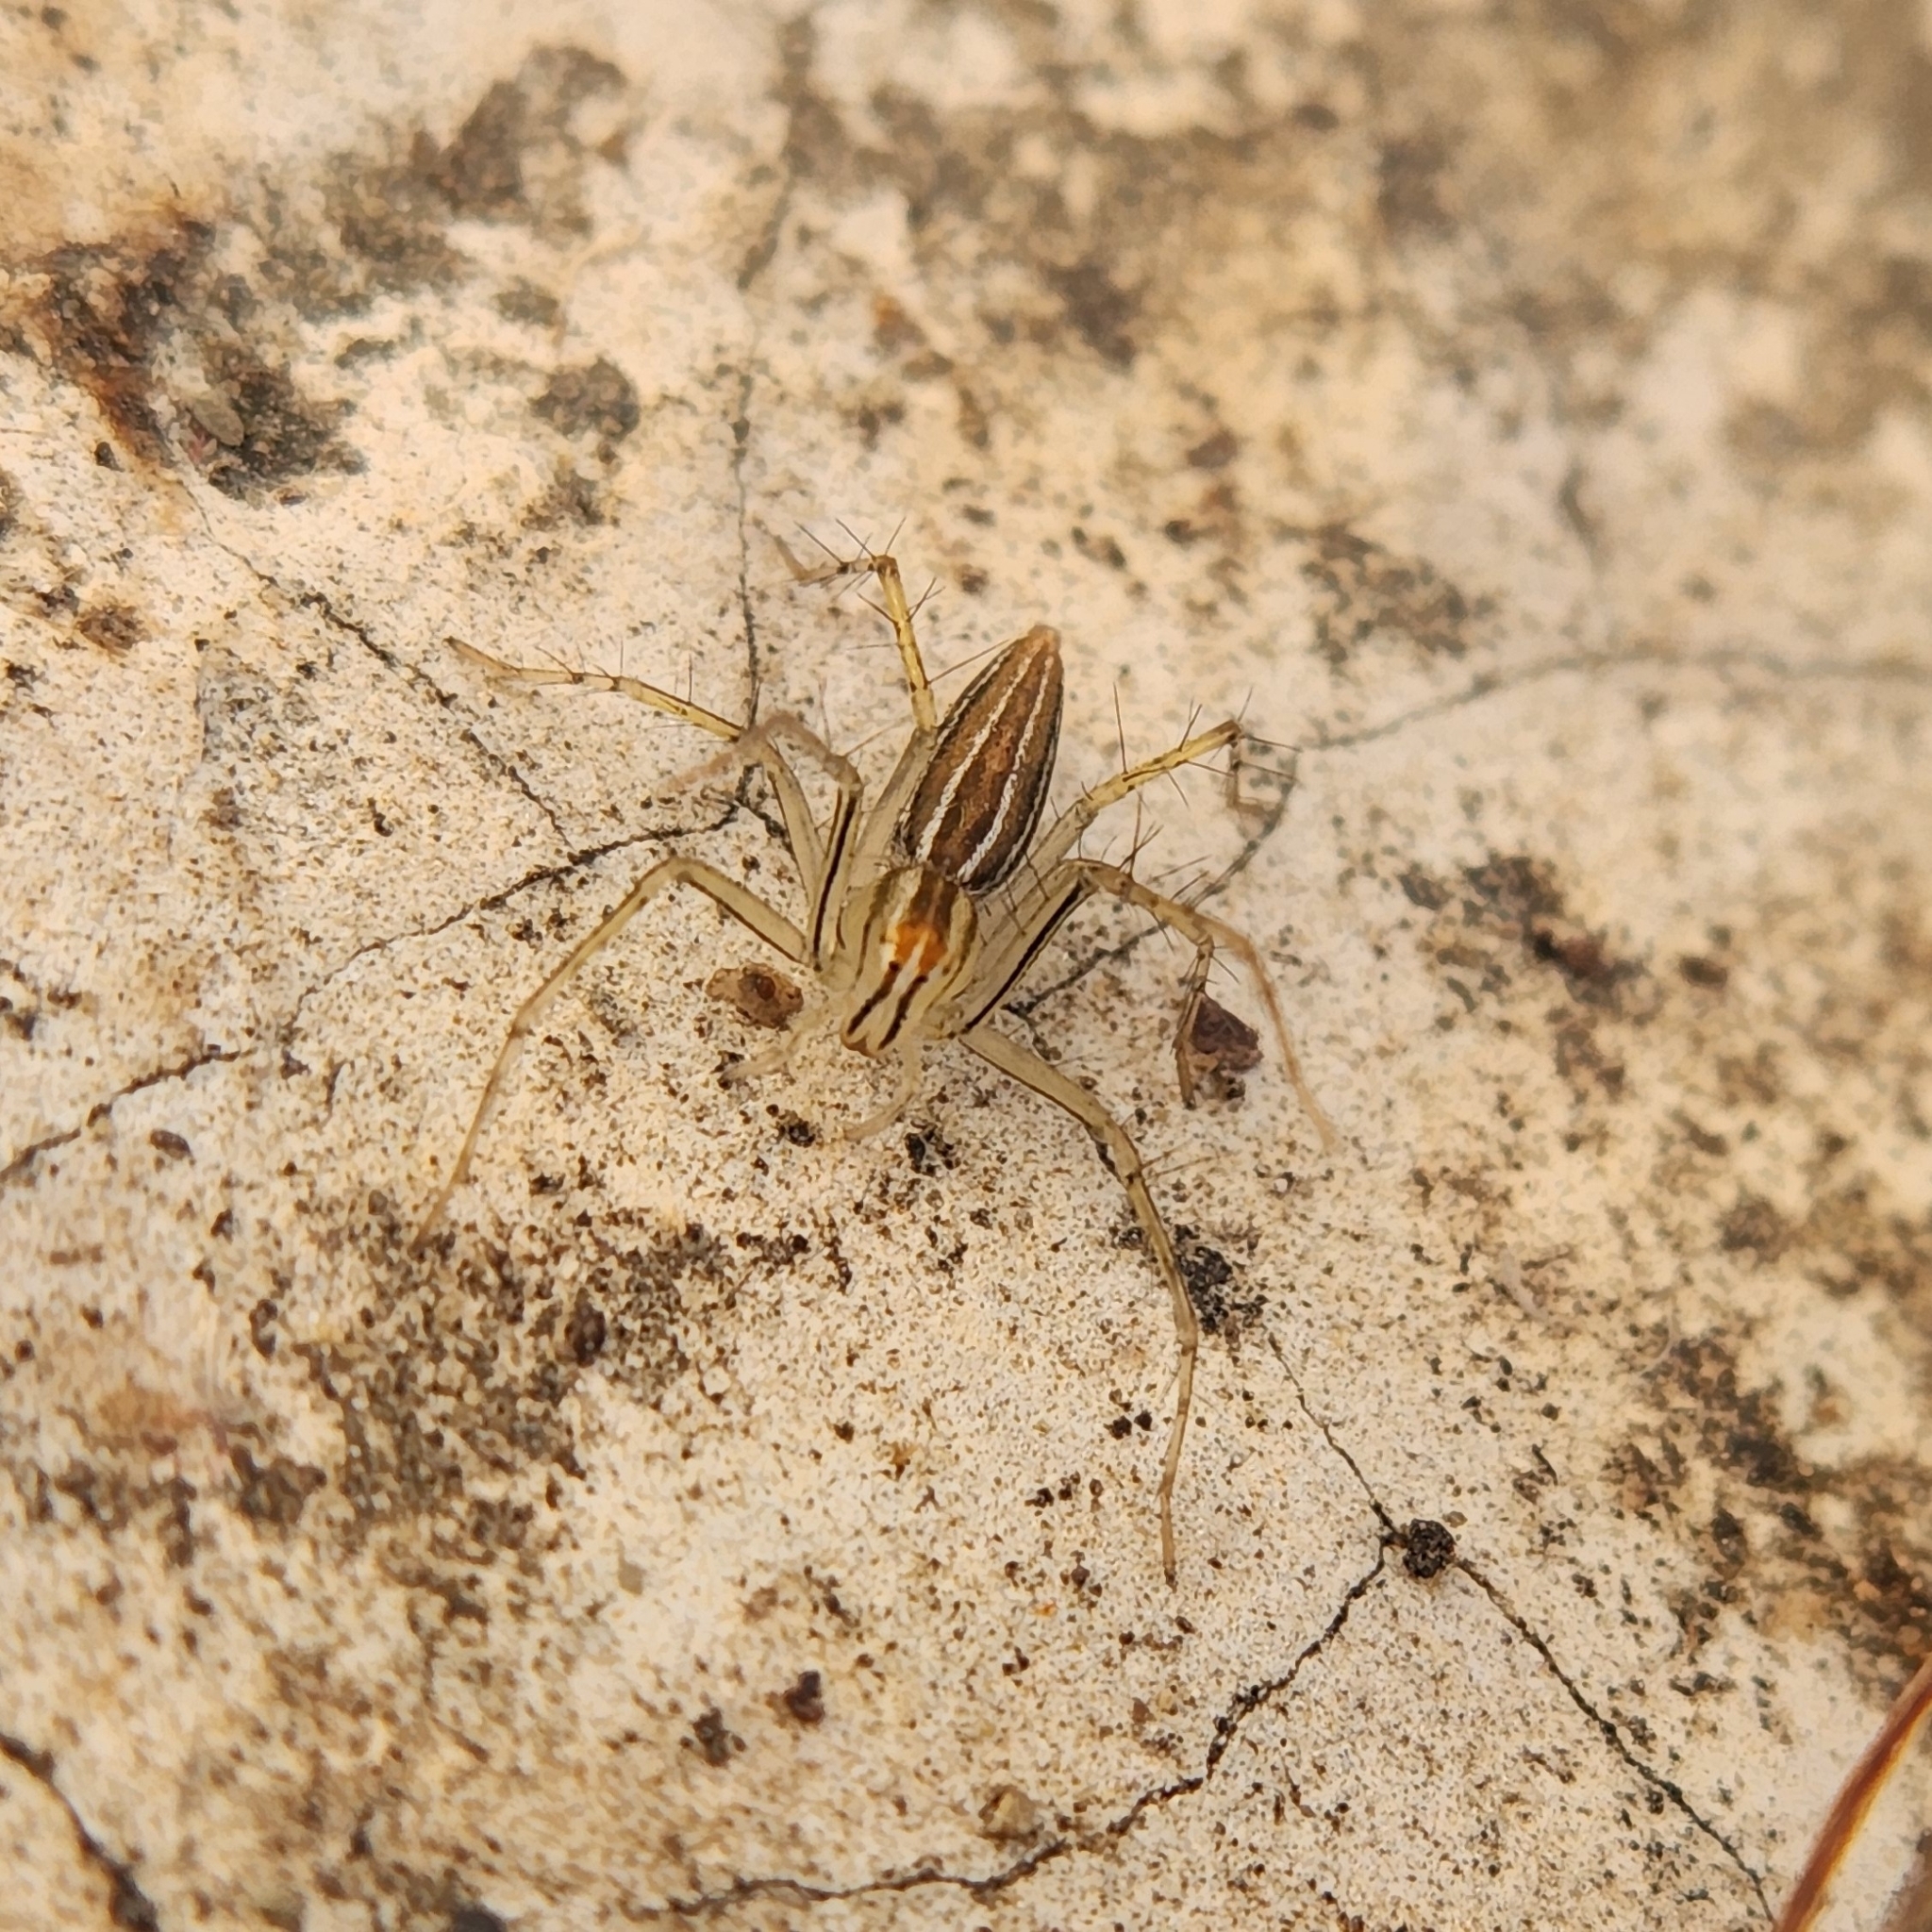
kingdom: Animalia
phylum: Arthropoda
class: Arachnida
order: Araneae
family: Oxyopidae
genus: Oxyopes
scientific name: Oxyopes macilentus
